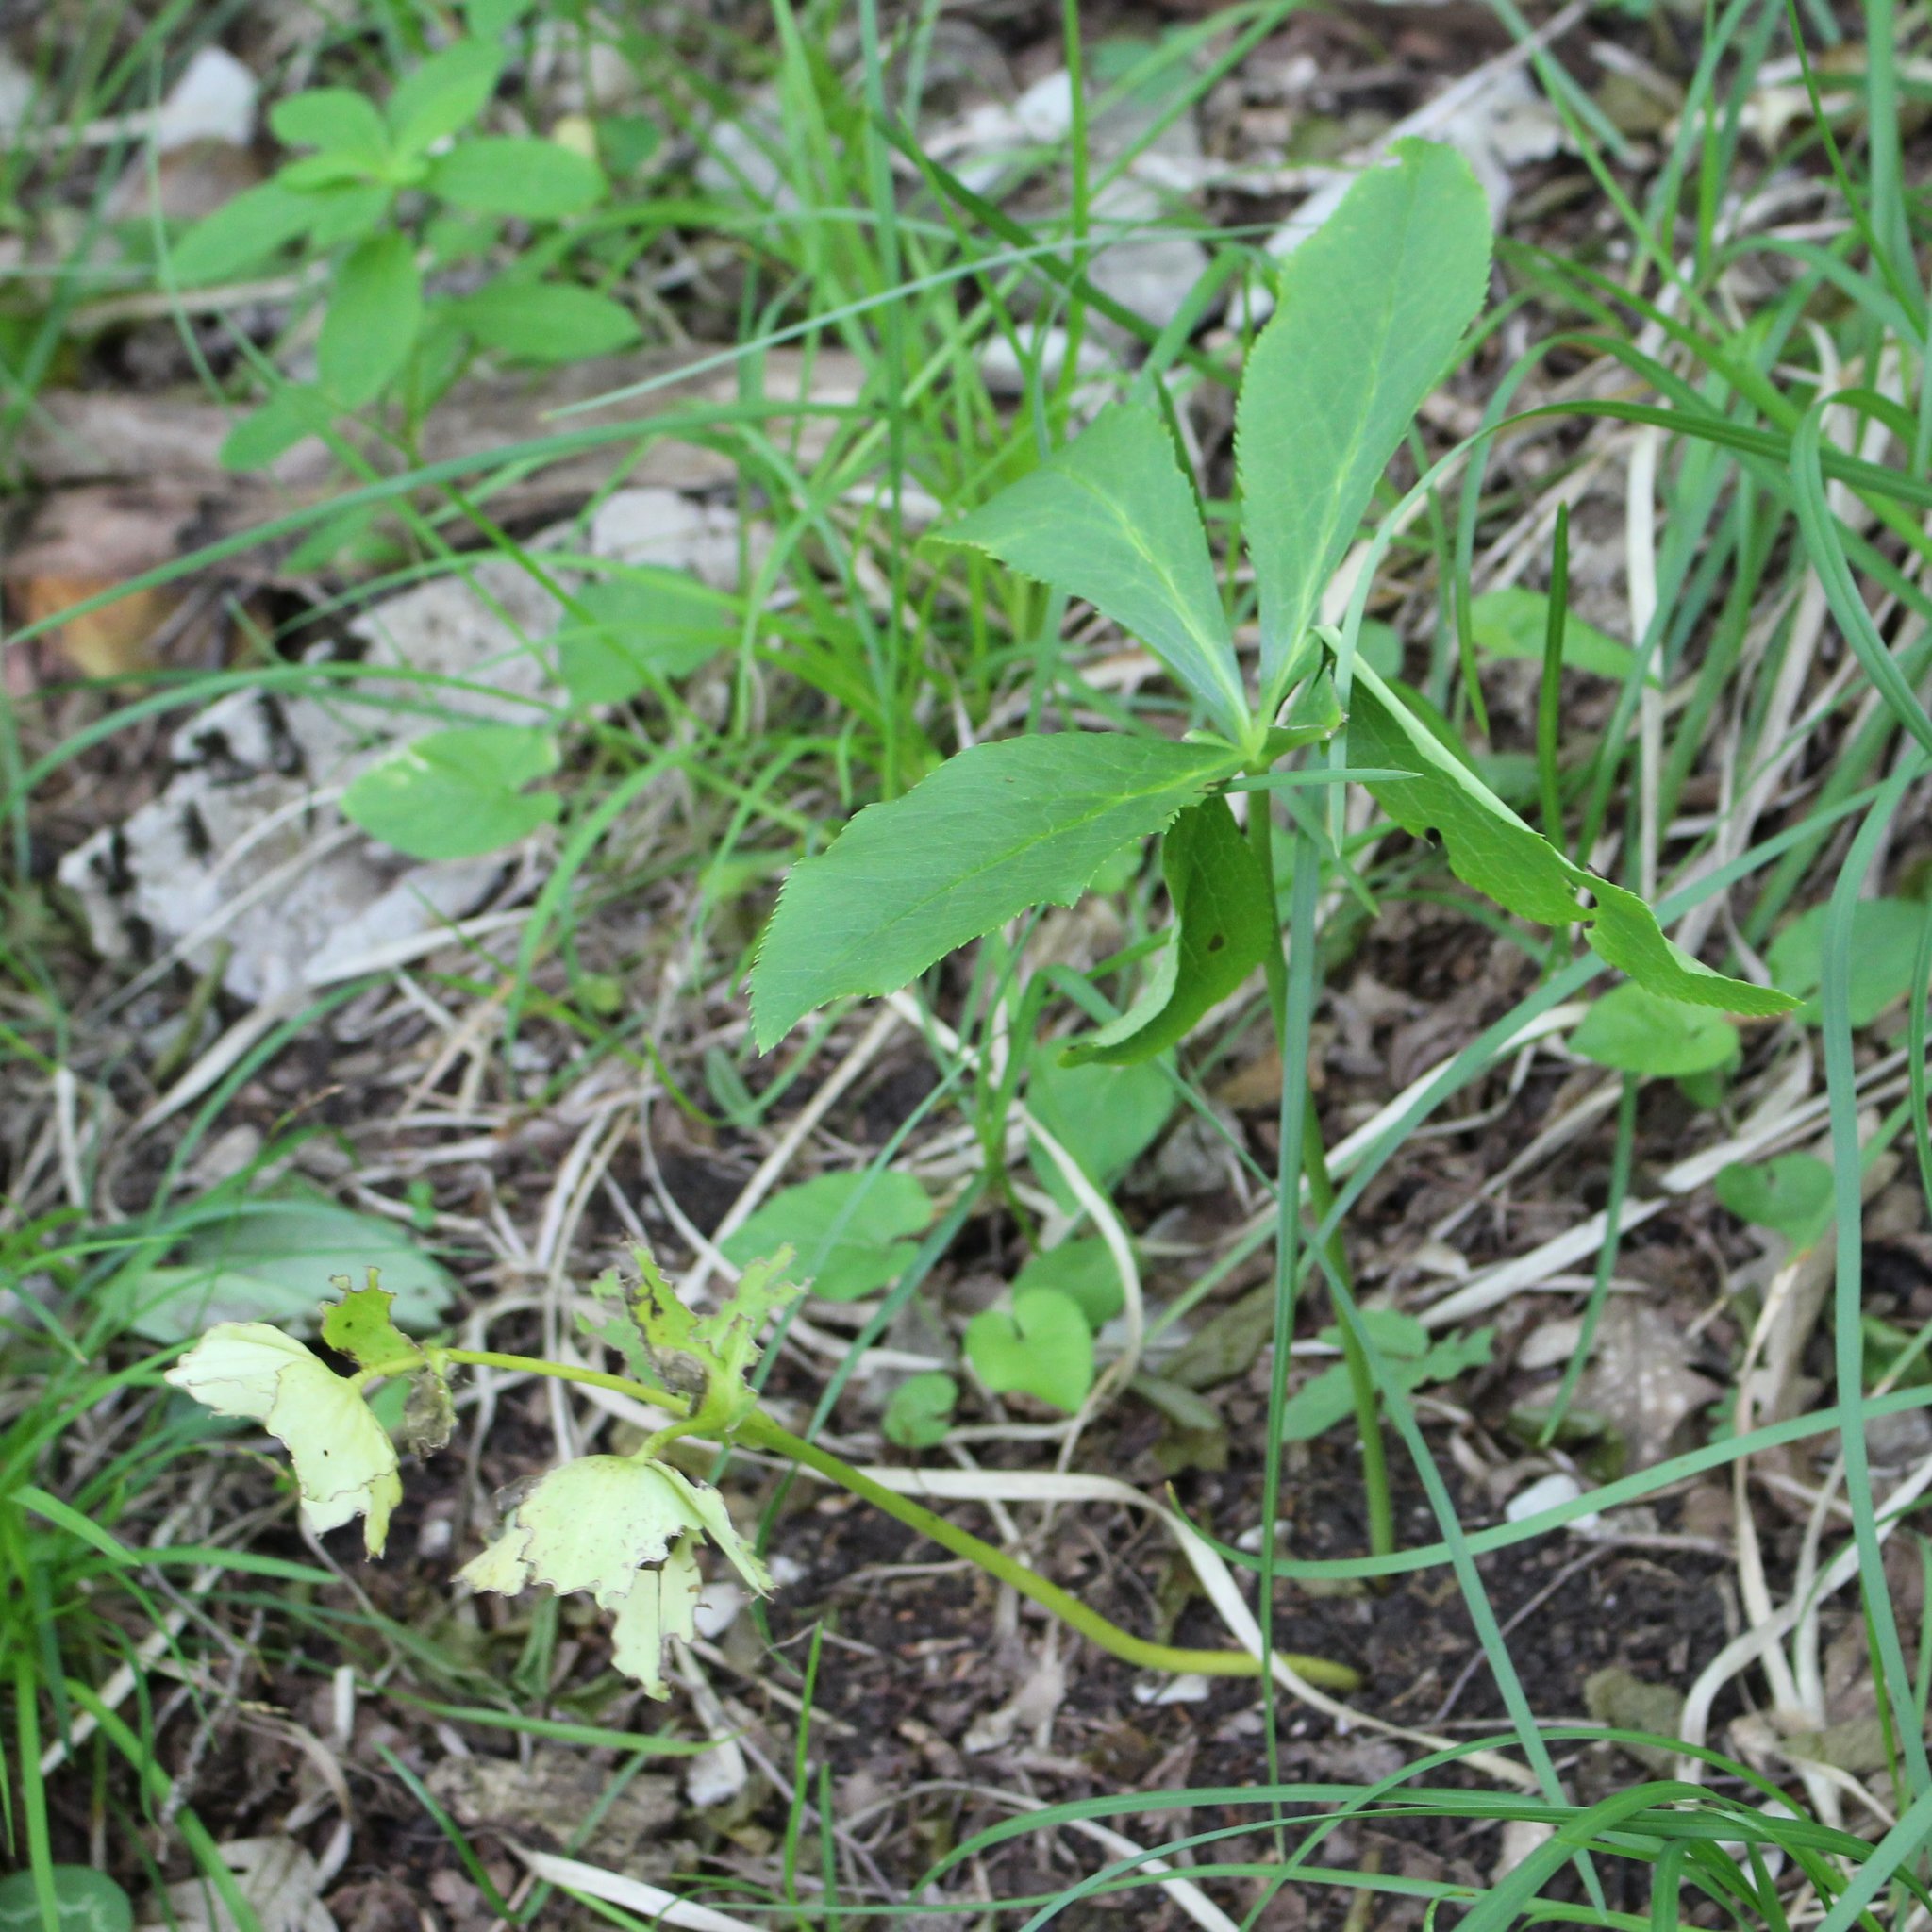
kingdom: Plantae
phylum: Tracheophyta
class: Magnoliopsida
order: Ranunculales
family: Ranunculaceae
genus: Helleborus
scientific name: Helleborus orientalis
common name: Lenten-rose
